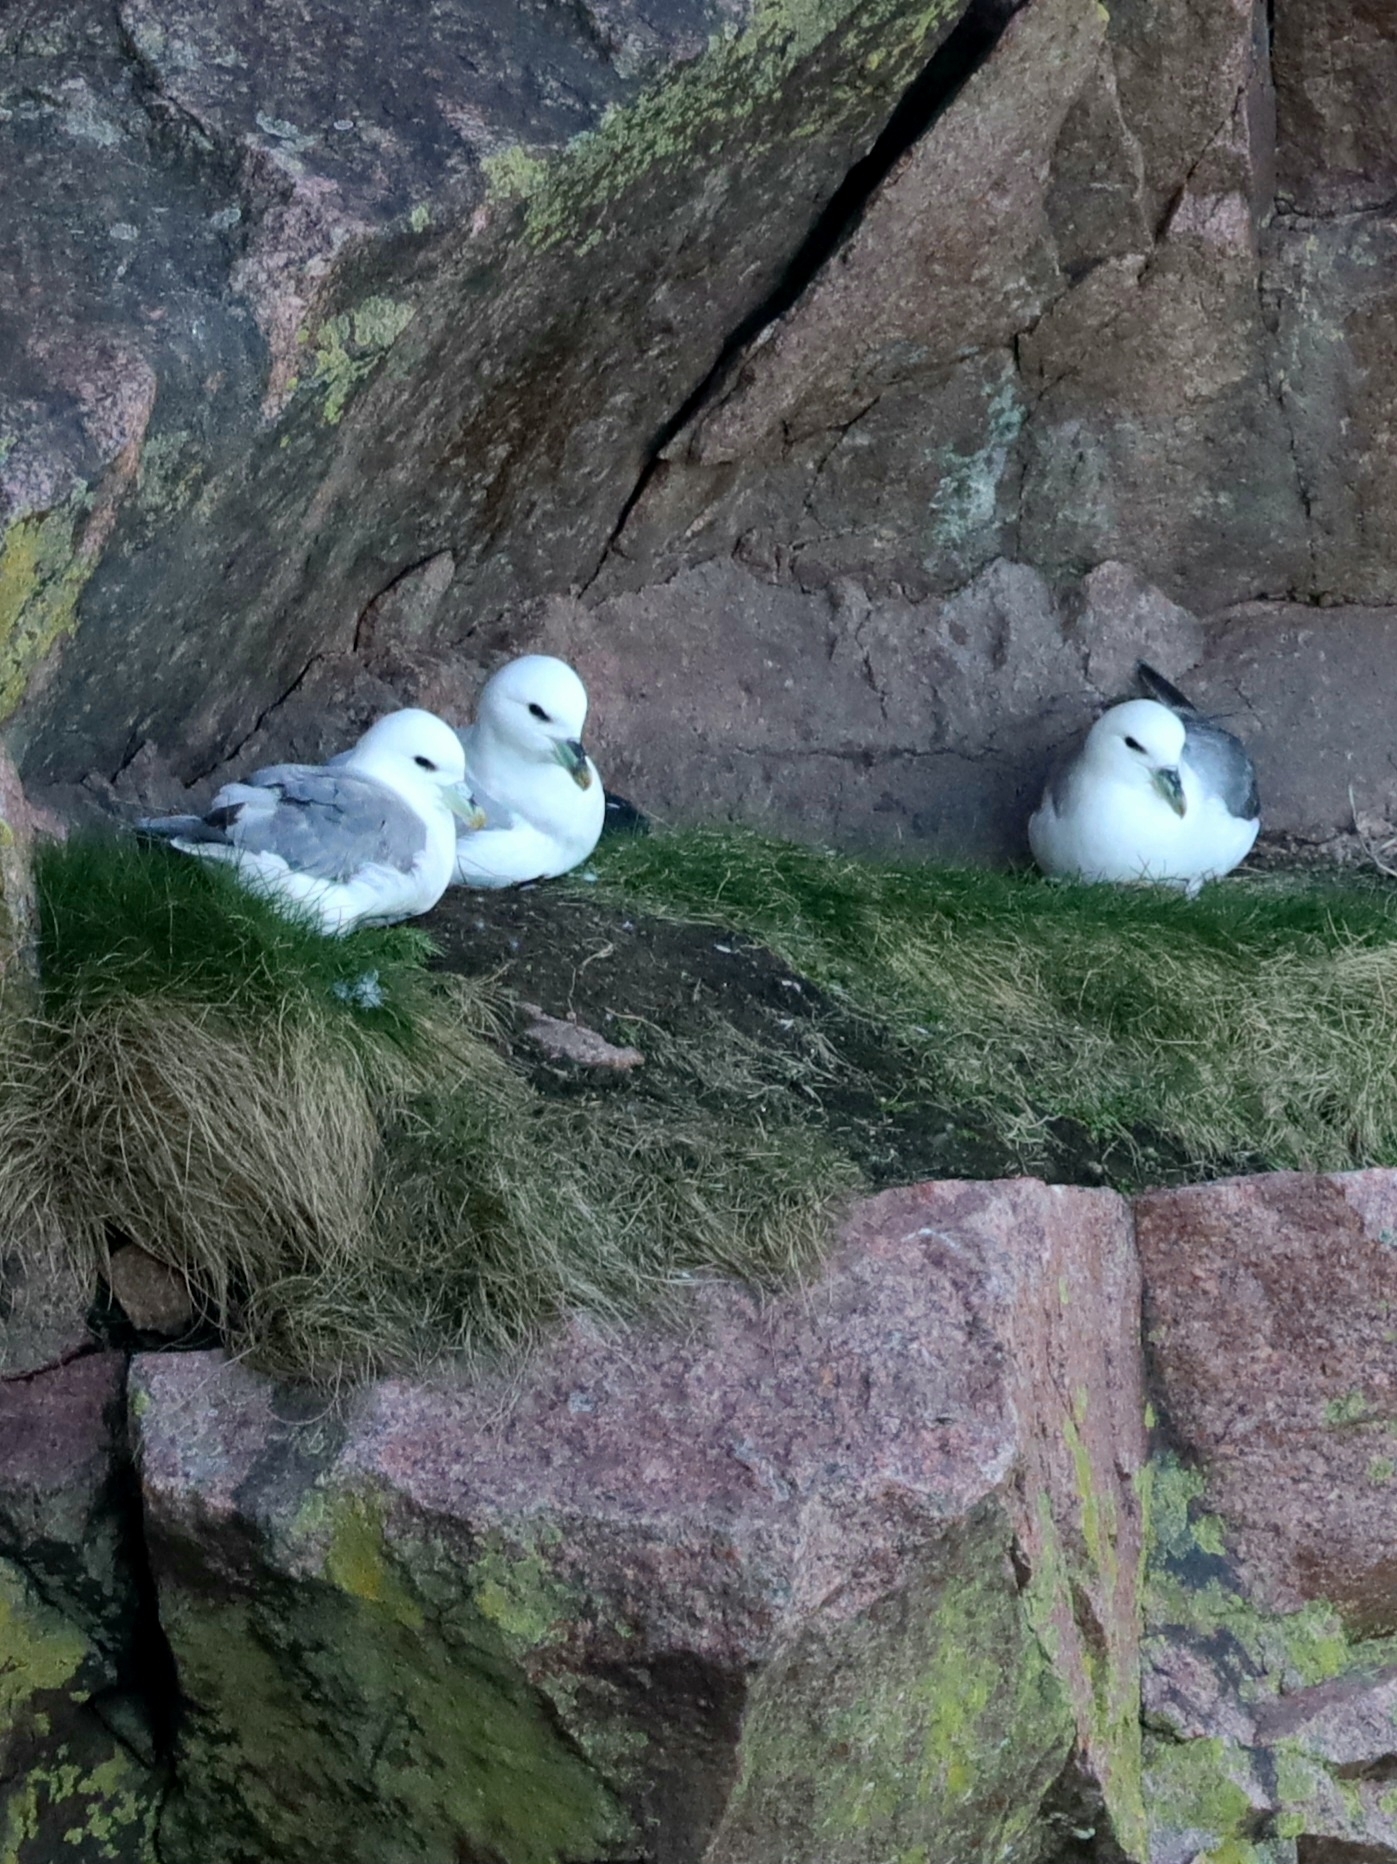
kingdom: Animalia
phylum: Chordata
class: Aves
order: Procellariiformes
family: Procellariidae
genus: Fulmarus
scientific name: Fulmarus glacialis
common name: Northern fulmar
